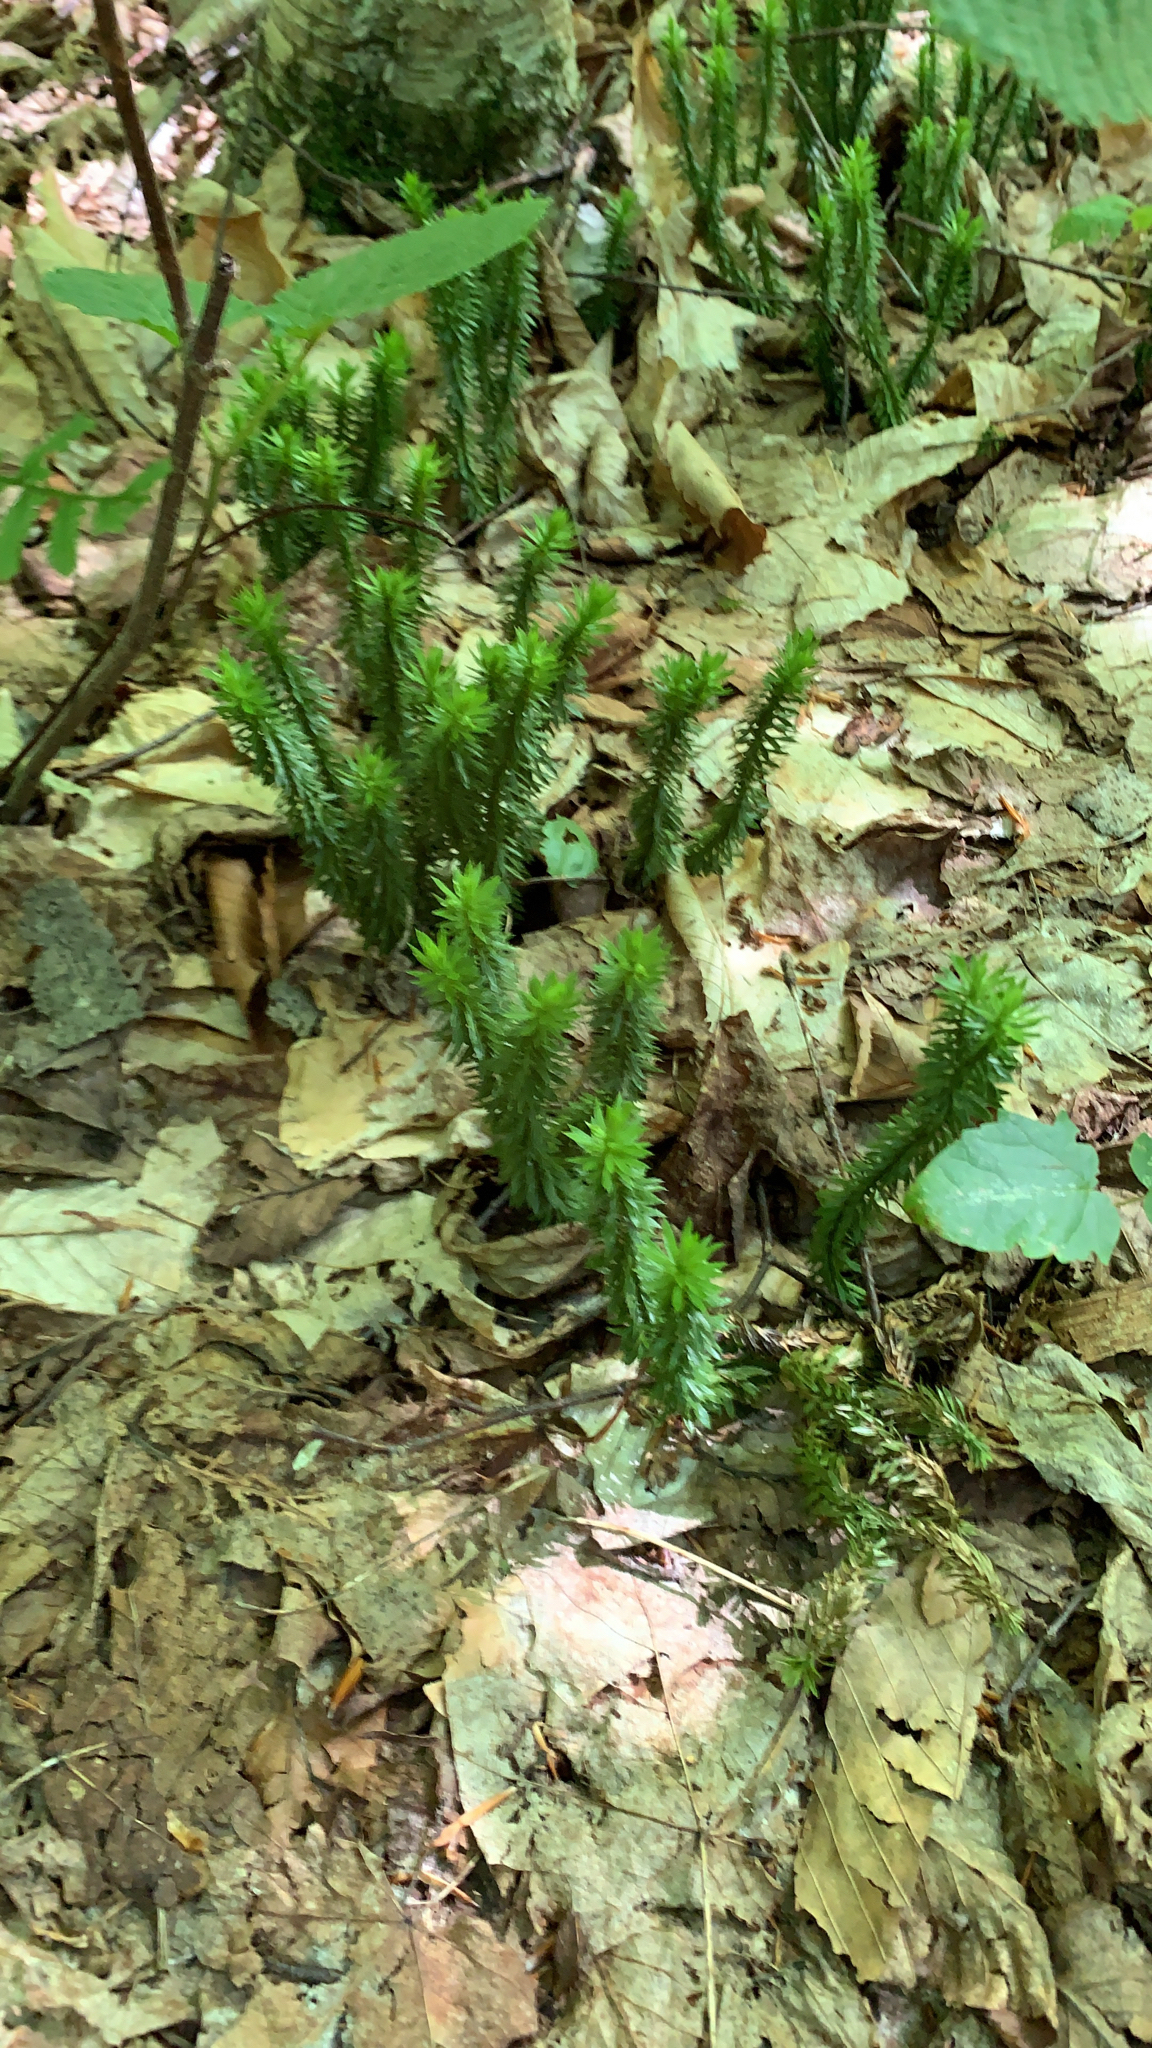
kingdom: Plantae
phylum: Tracheophyta
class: Lycopodiopsida
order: Lycopodiales
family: Lycopodiaceae
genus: Huperzia
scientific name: Huperzia lucidula
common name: Shining clubmoss
